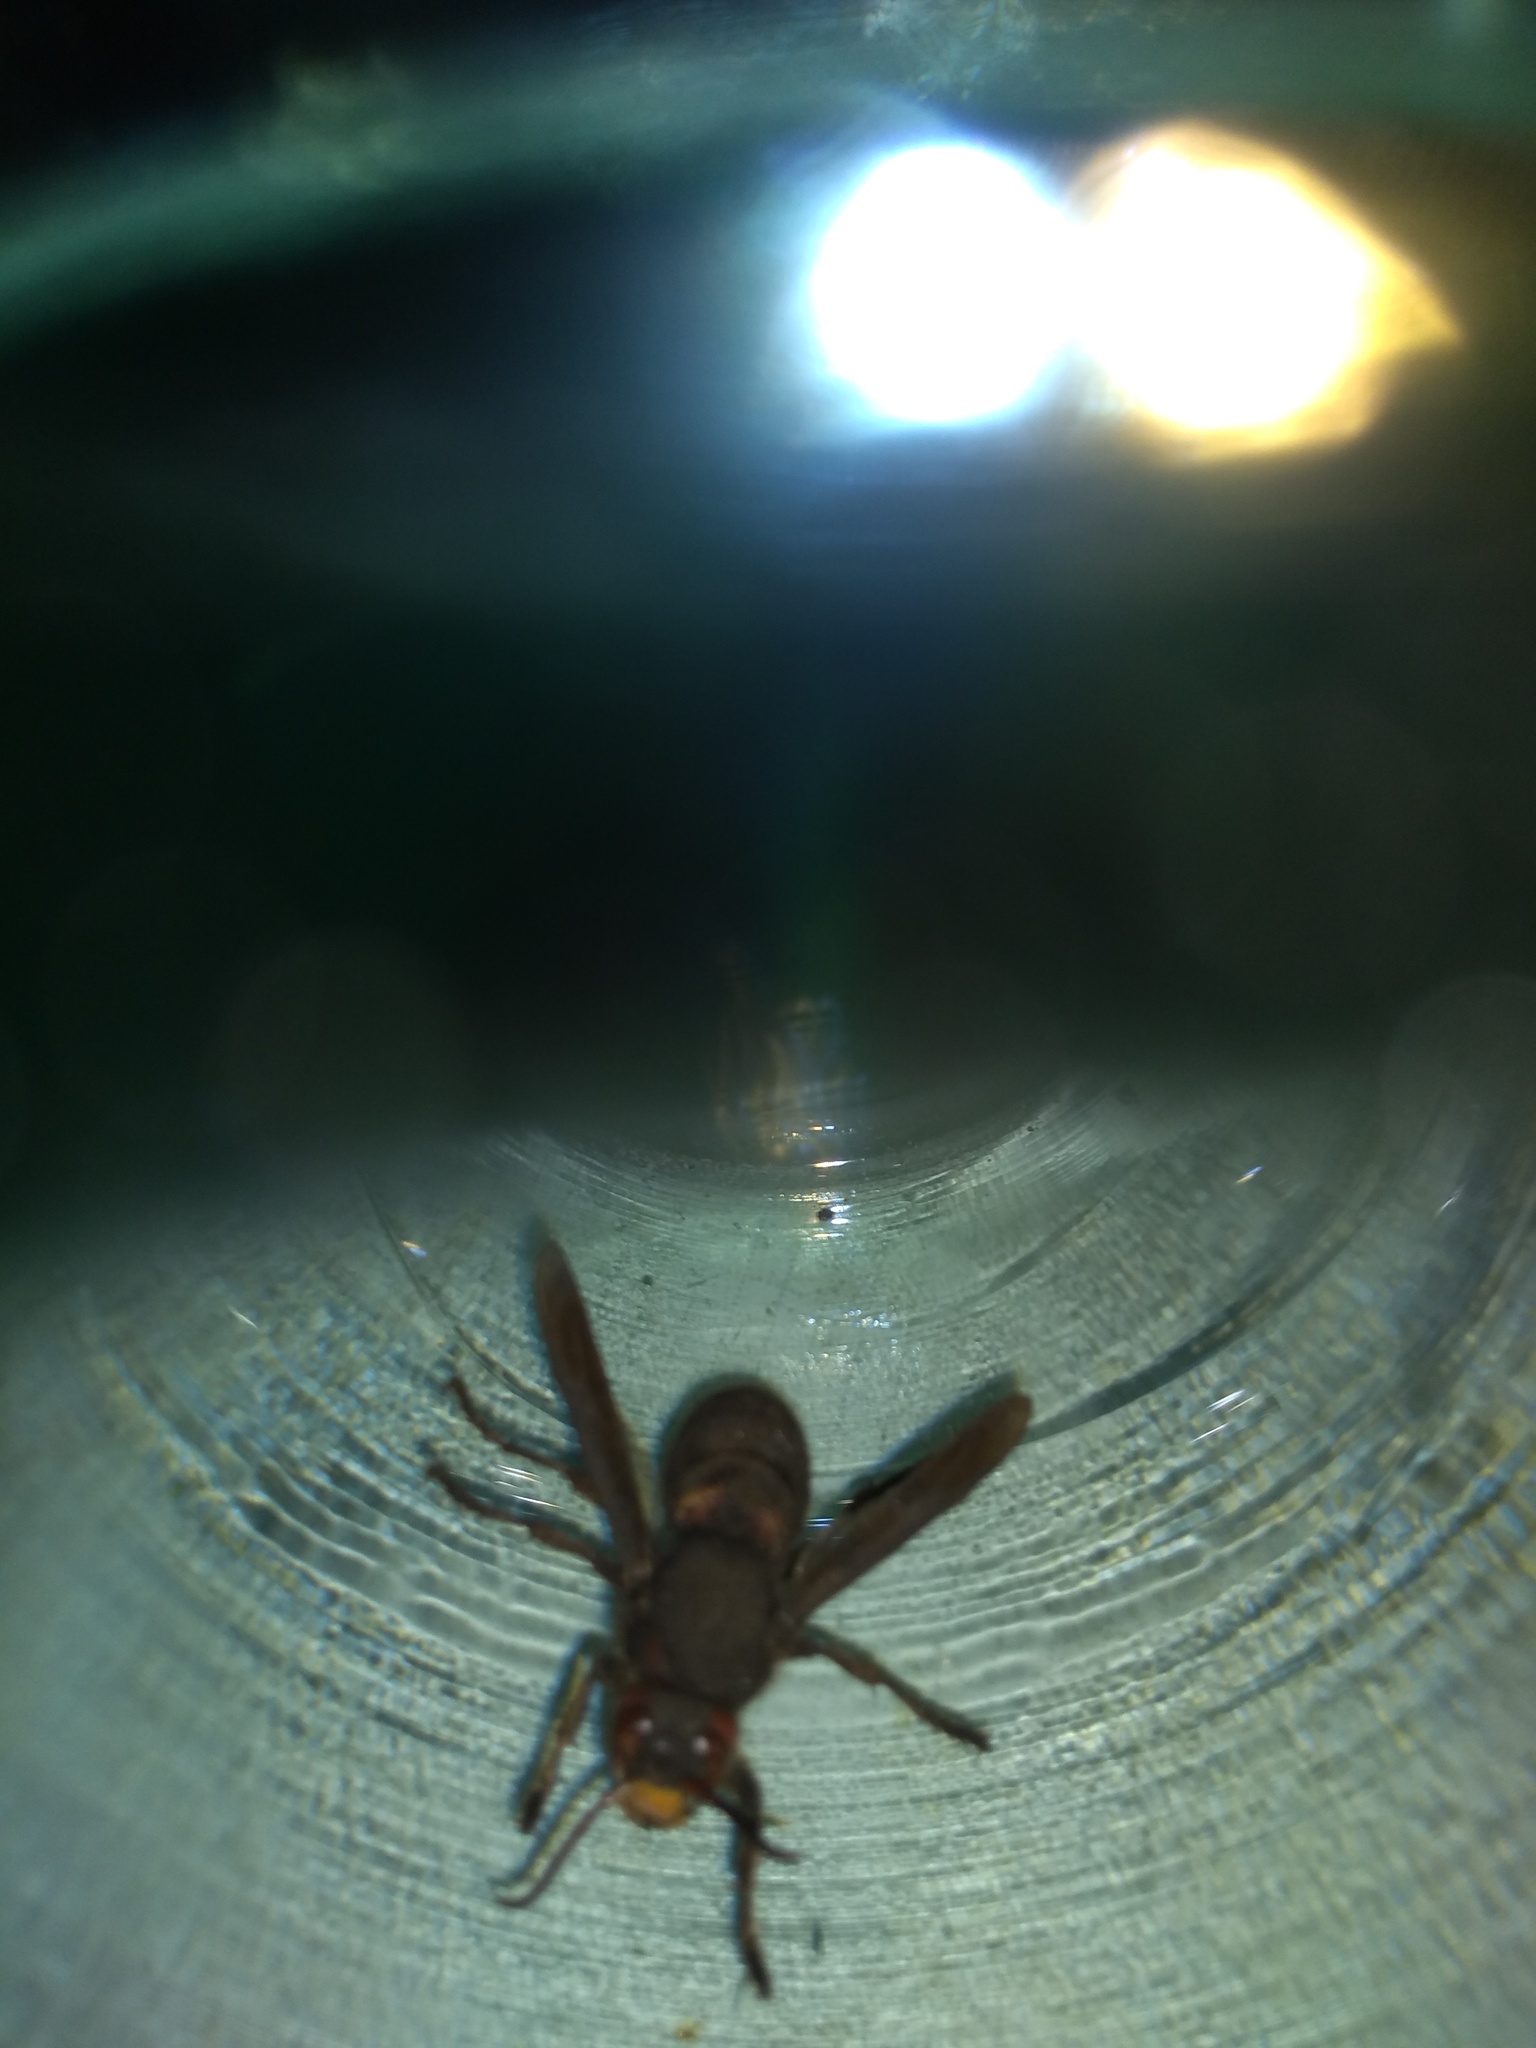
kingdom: Animalia
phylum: Arthropoda
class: Insecta
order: Hymenoptera
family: Vespidae
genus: Vespa
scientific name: Vespa crabro
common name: Hornet
